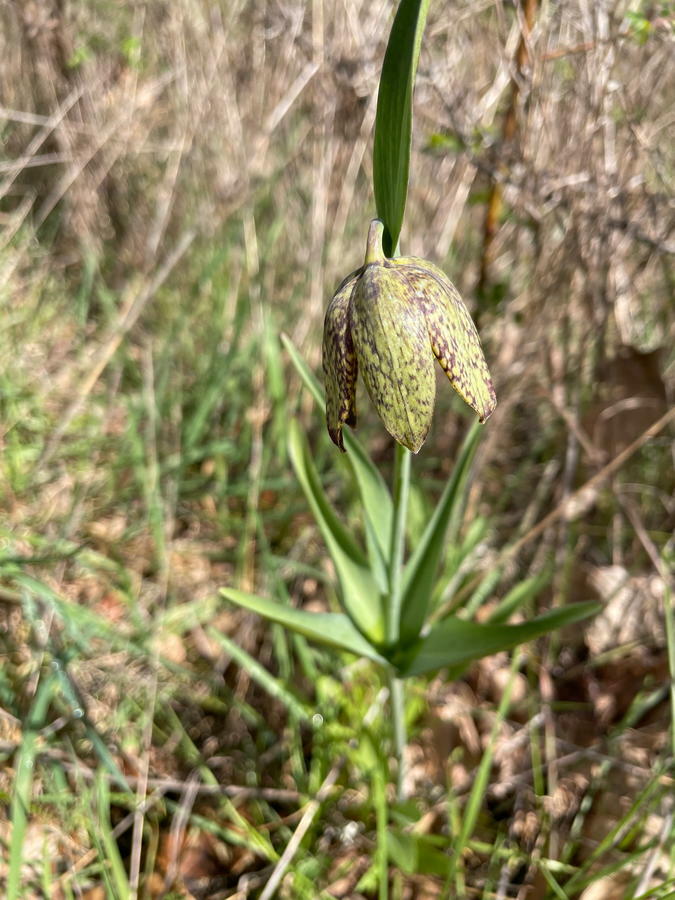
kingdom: Plantae
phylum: Tracheophyta
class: Liliopsida
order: Liliales
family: Liliaceae
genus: Fritillaria
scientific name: Fritillaria affinis
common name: Ojai fritillary
